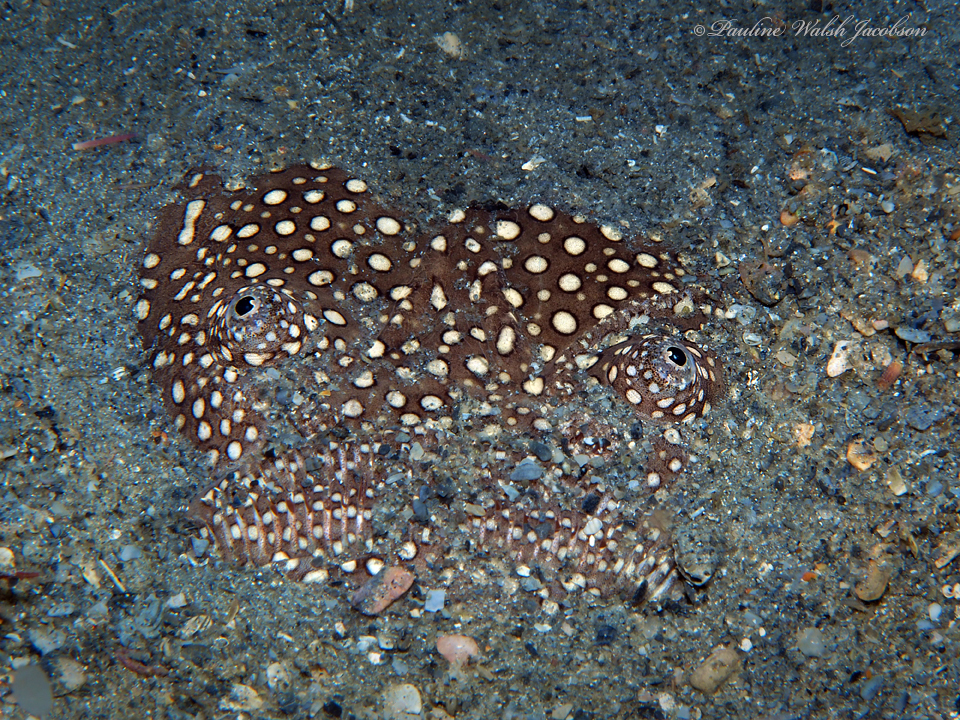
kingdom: Animalia
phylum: Chordata
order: Perciformes
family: Uranoscopidae
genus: Astroscopus
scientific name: Astroscopus y-graecum
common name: Southern stargazer
